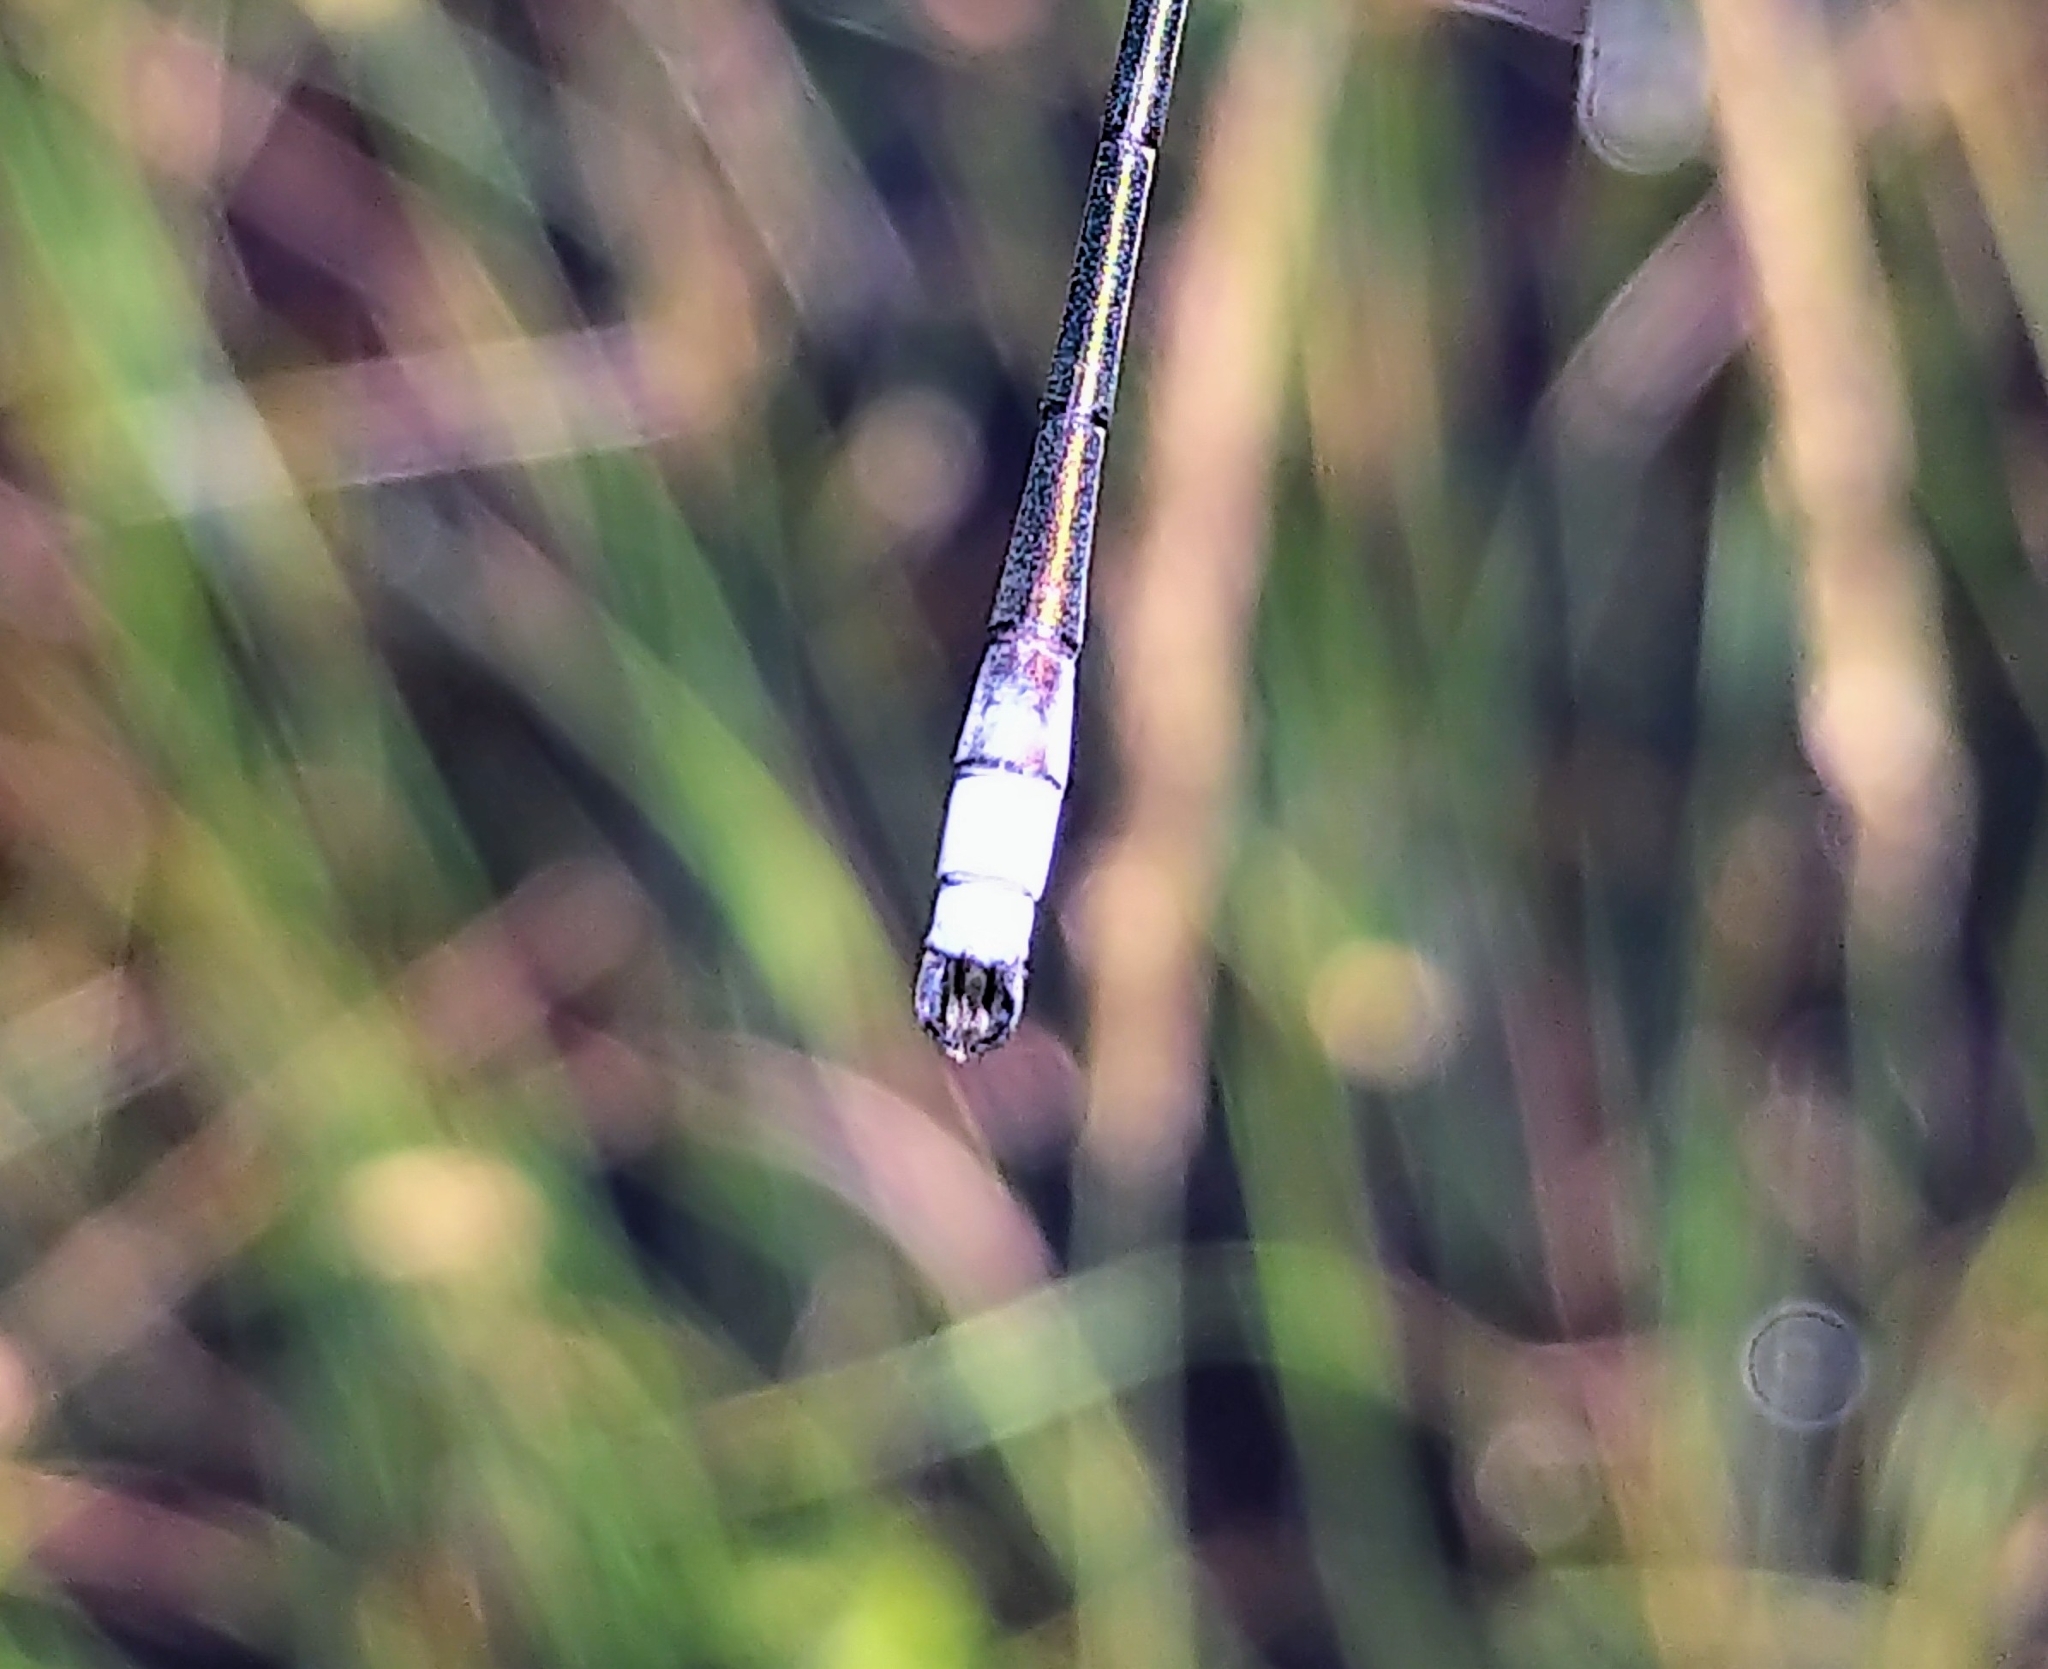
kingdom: Animalia
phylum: Arthropoda
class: Insecta
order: Odonata
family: Lestidae
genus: Lestes
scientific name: Lestes disjunctus
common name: Northern spreadwing
